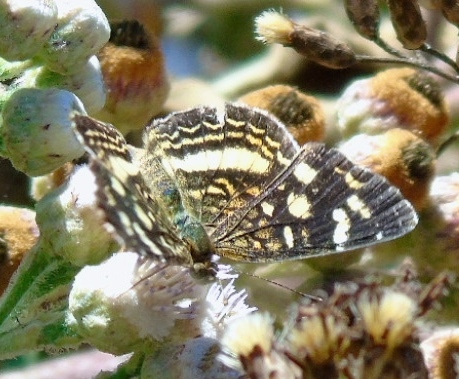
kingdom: Animalia
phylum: Arthropoda
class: Insecta
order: Lepidoptera
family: Nymphalidae
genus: Anthanassa
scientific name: Anthanassa tulcis
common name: Pale-banded crescent
